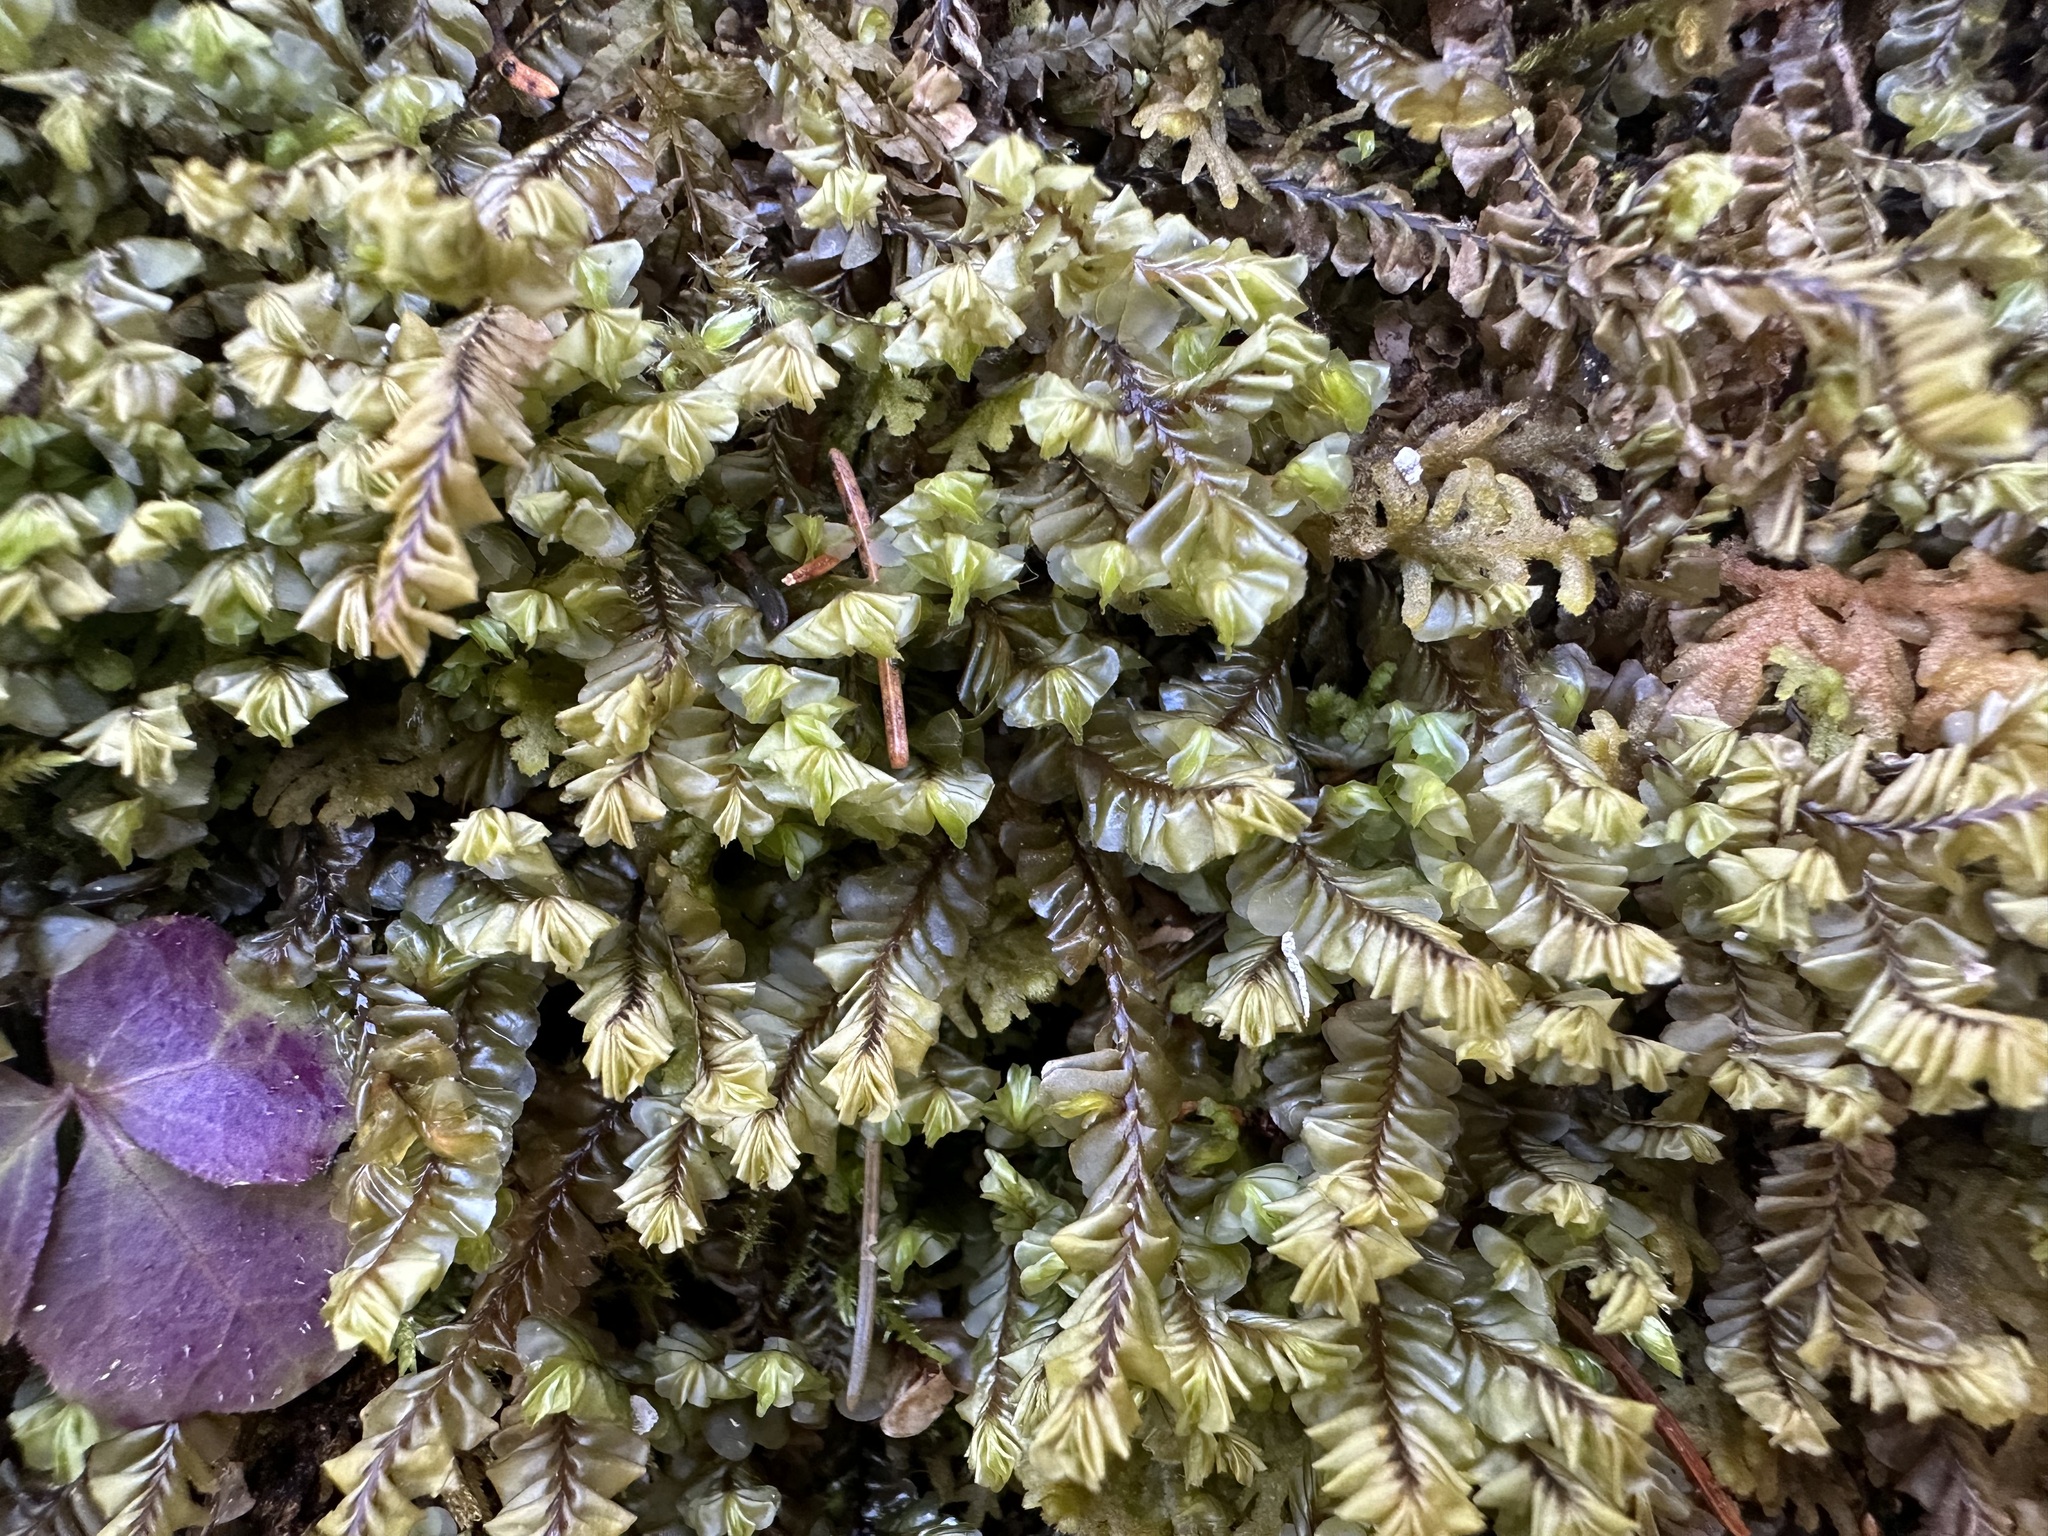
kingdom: Plantae
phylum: Marchantiophyta
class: Jungermanniopsida
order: Jungermanniales
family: Plagiochilaceae
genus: Plagiochila
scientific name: Plagiochila asplenioides
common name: Greater featherwort
